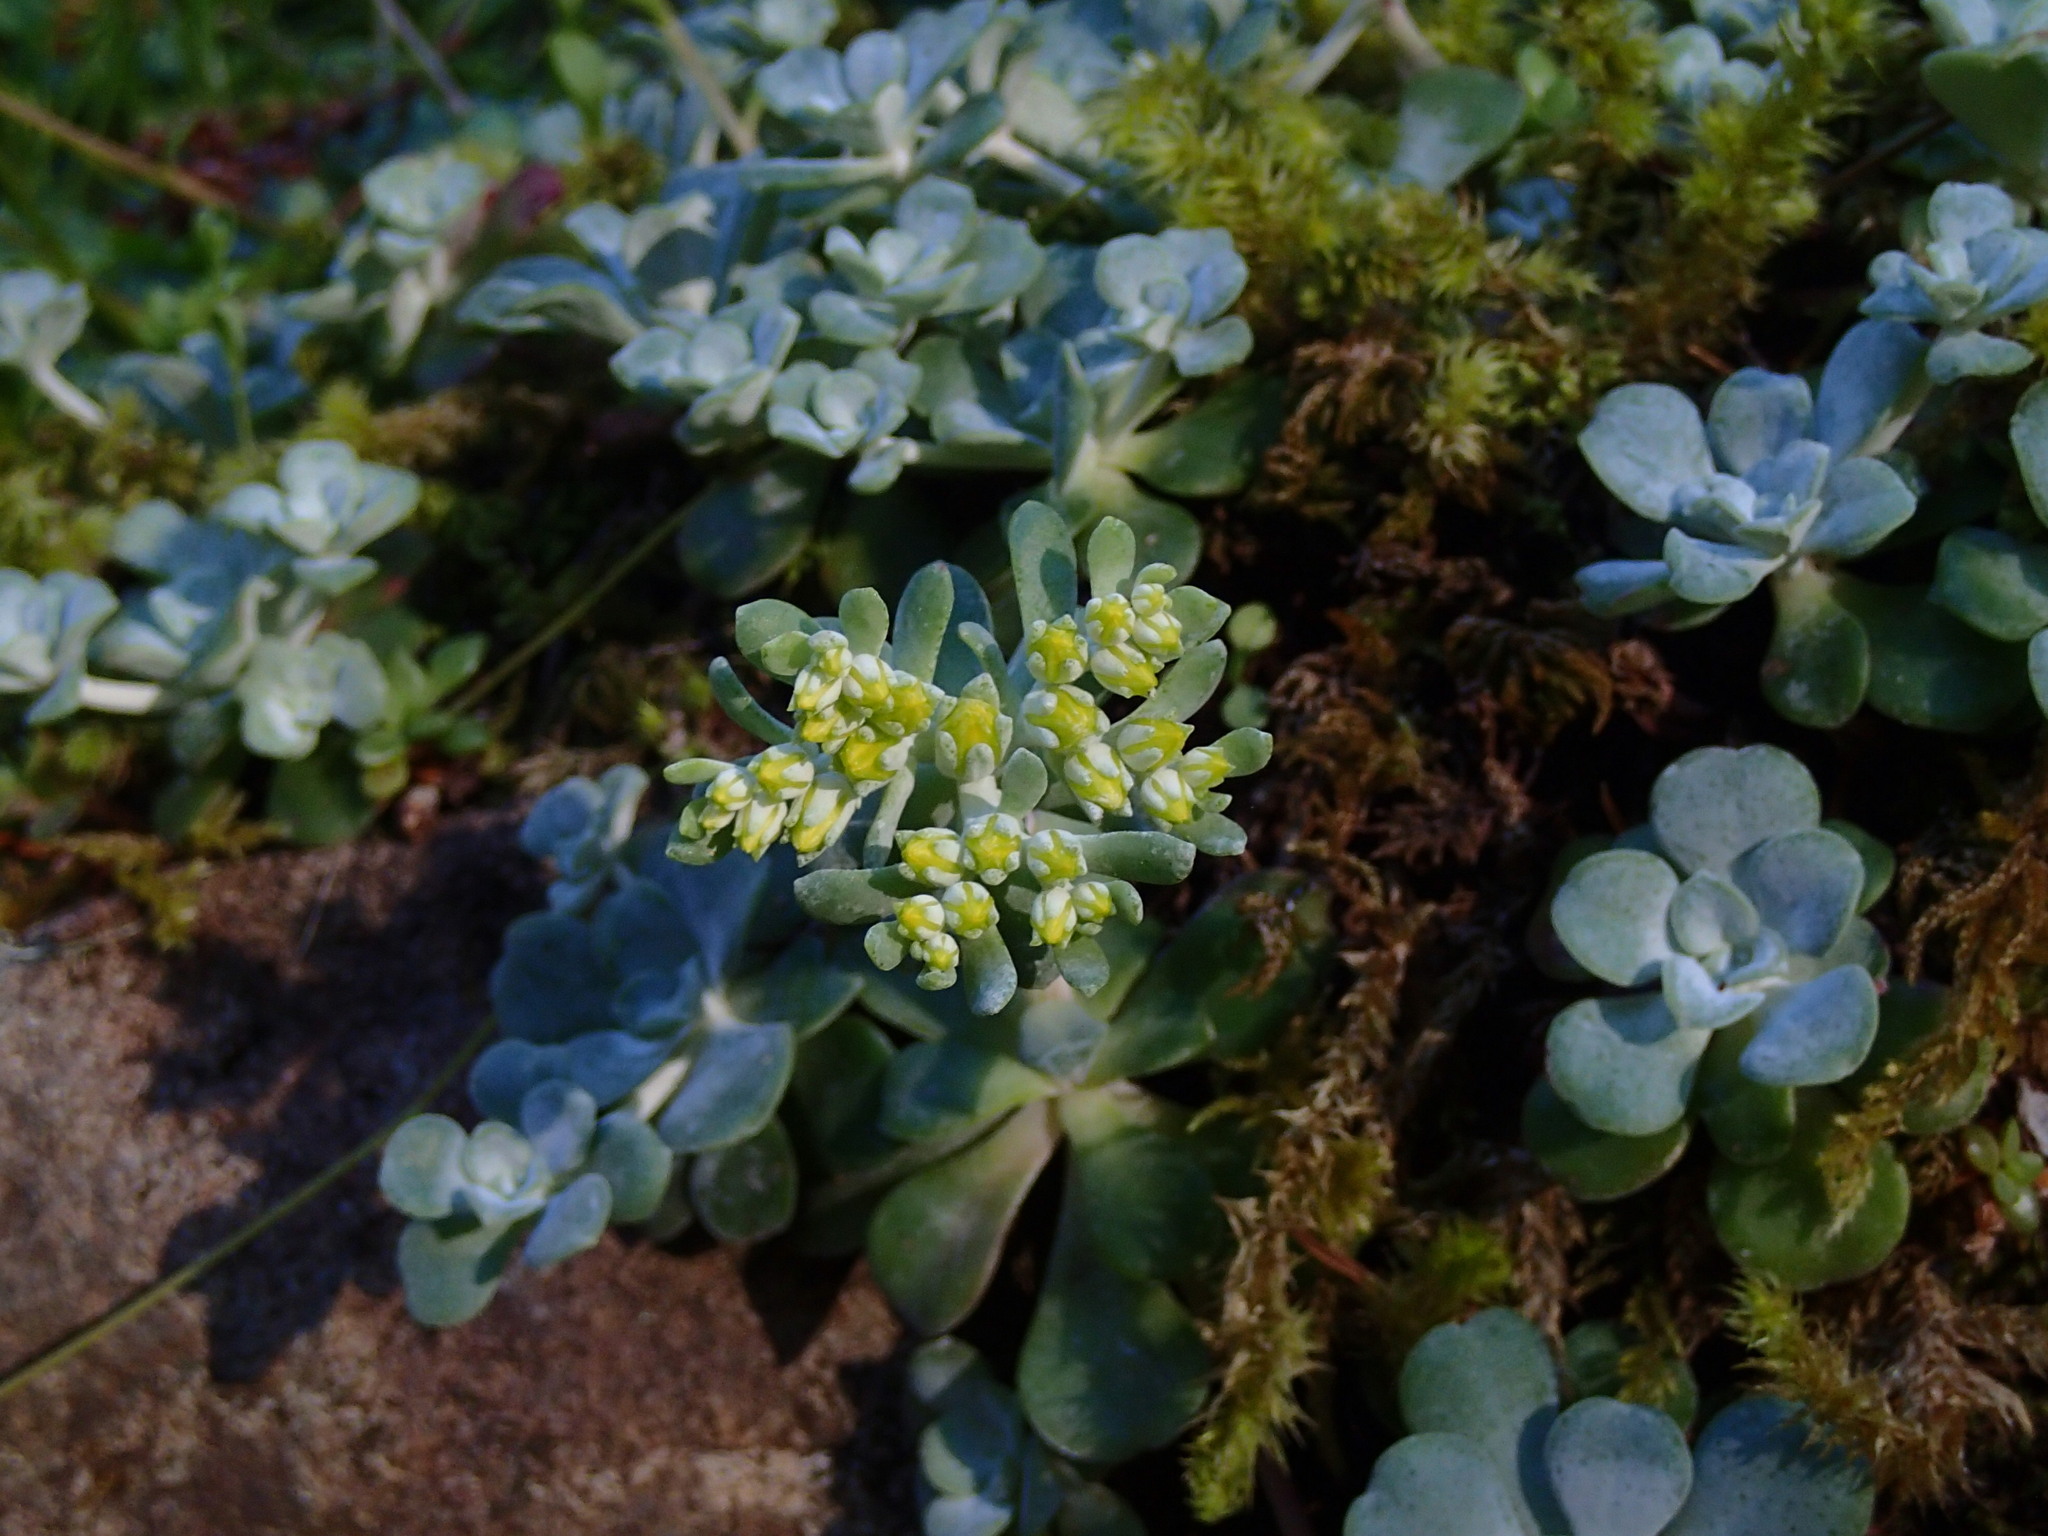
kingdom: Plantae
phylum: Tracheophyta
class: Magnoliopsida
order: Saxifragales
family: Crassulaceae
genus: Sedum
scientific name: Sedum spathulifolium
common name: Colorado stonecrop
